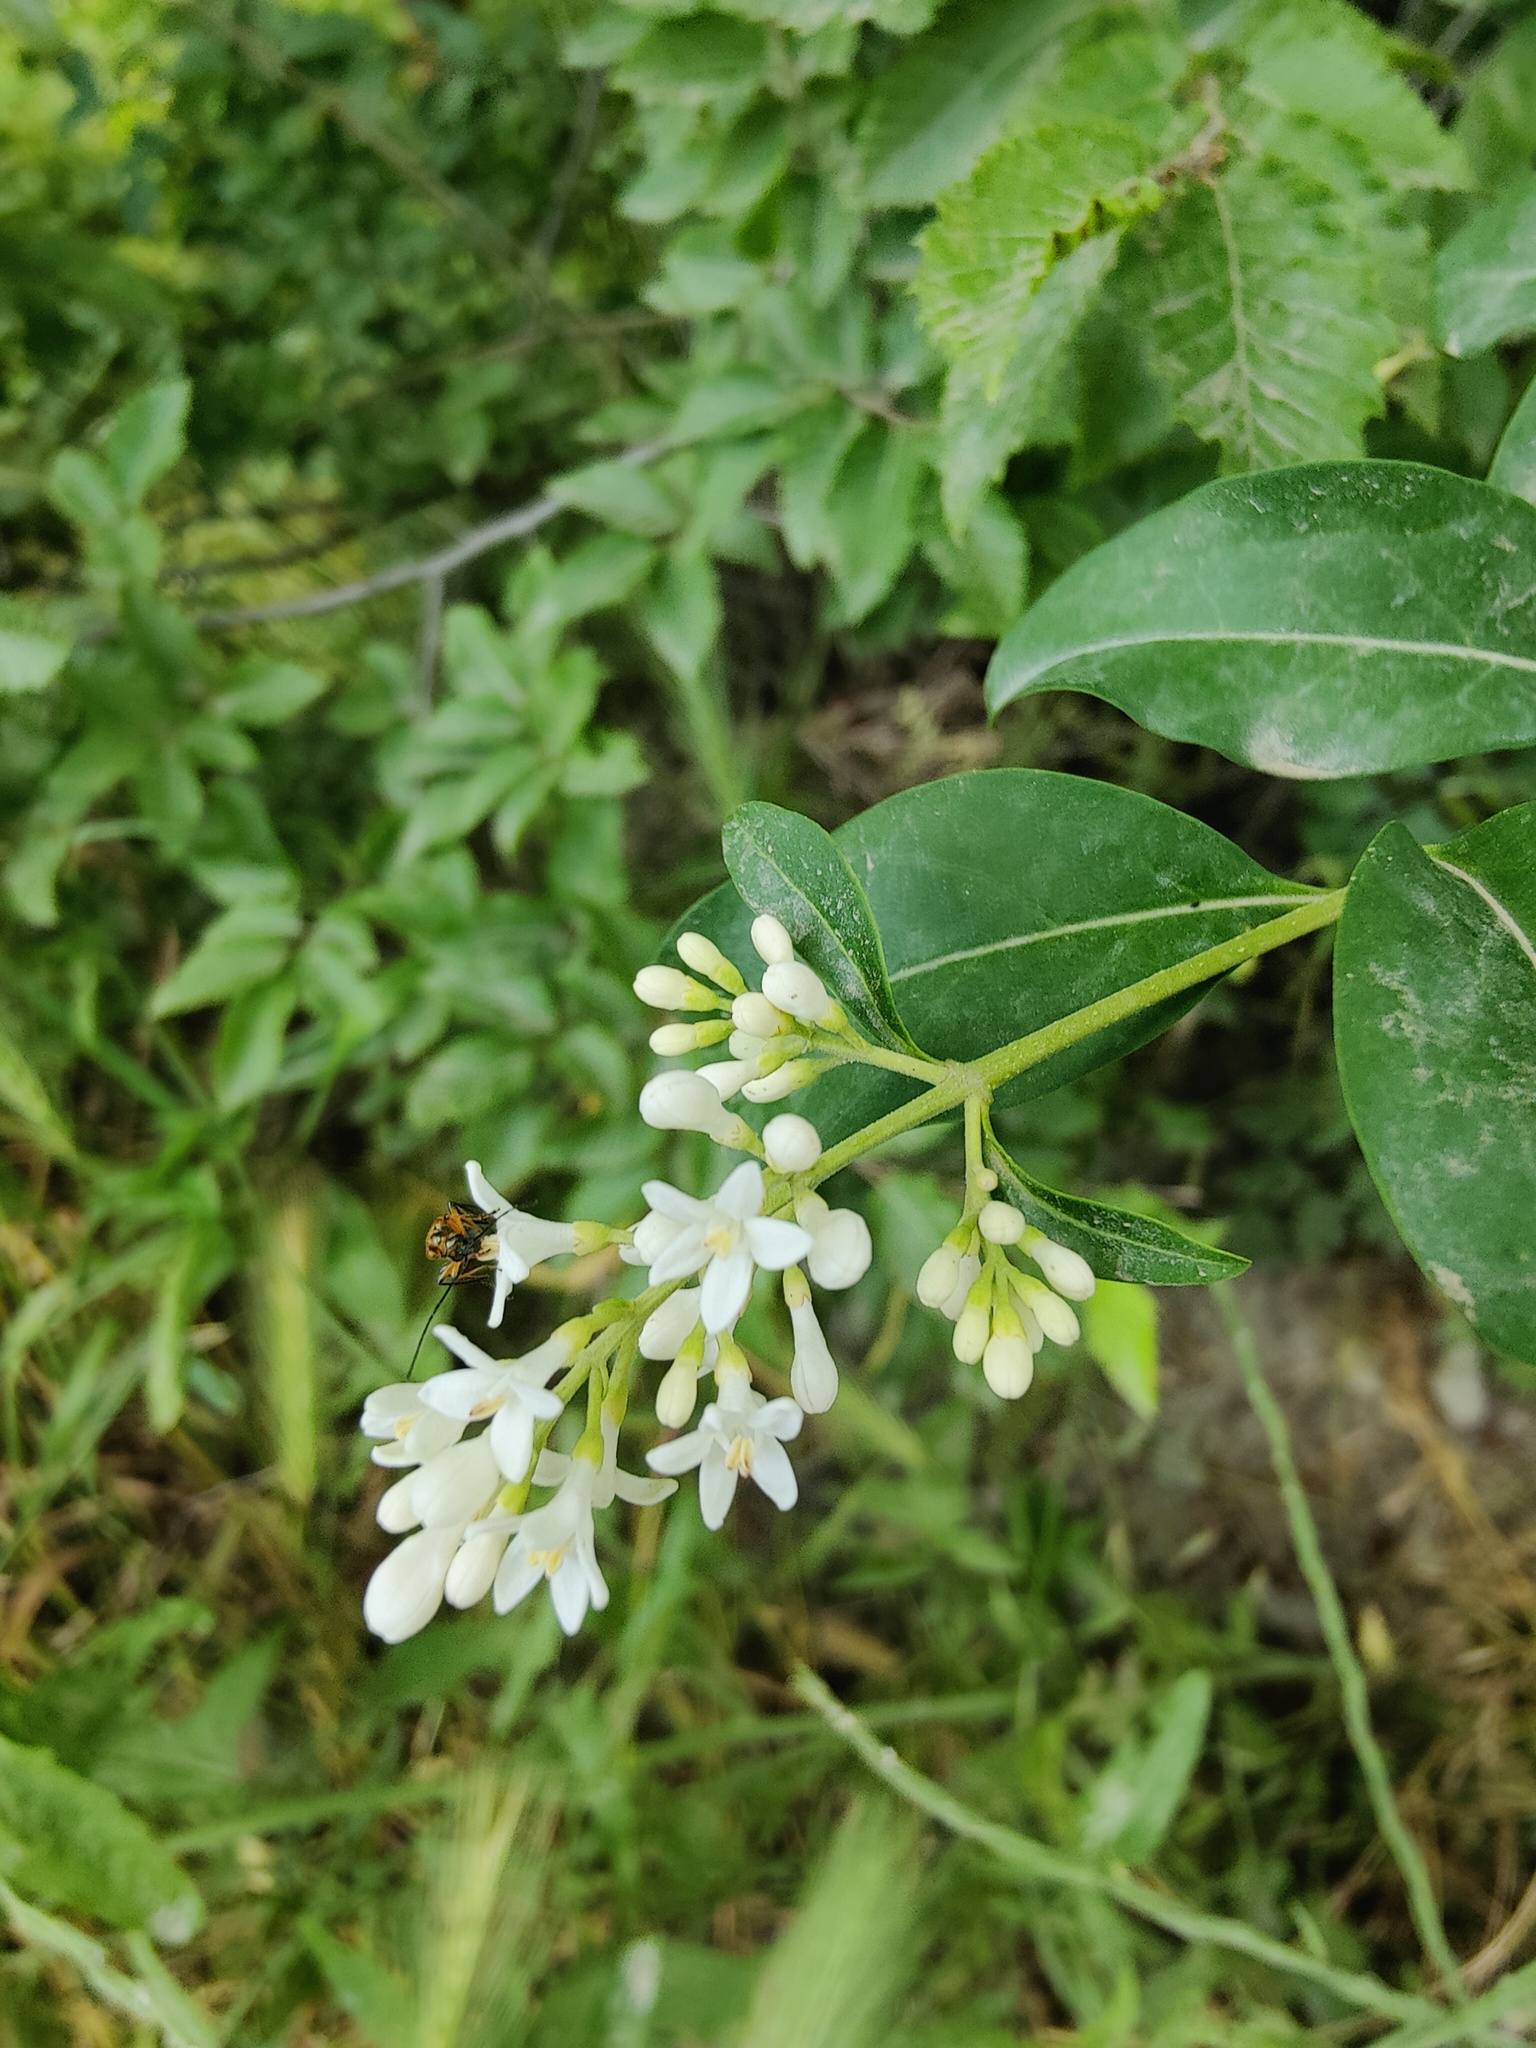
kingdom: Plantae
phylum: Tracheophyta
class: Magnoliopsida
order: Lamiales
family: Oleaceae
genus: Ligustrum
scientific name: Ligustrum vulgare
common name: Wild privet
